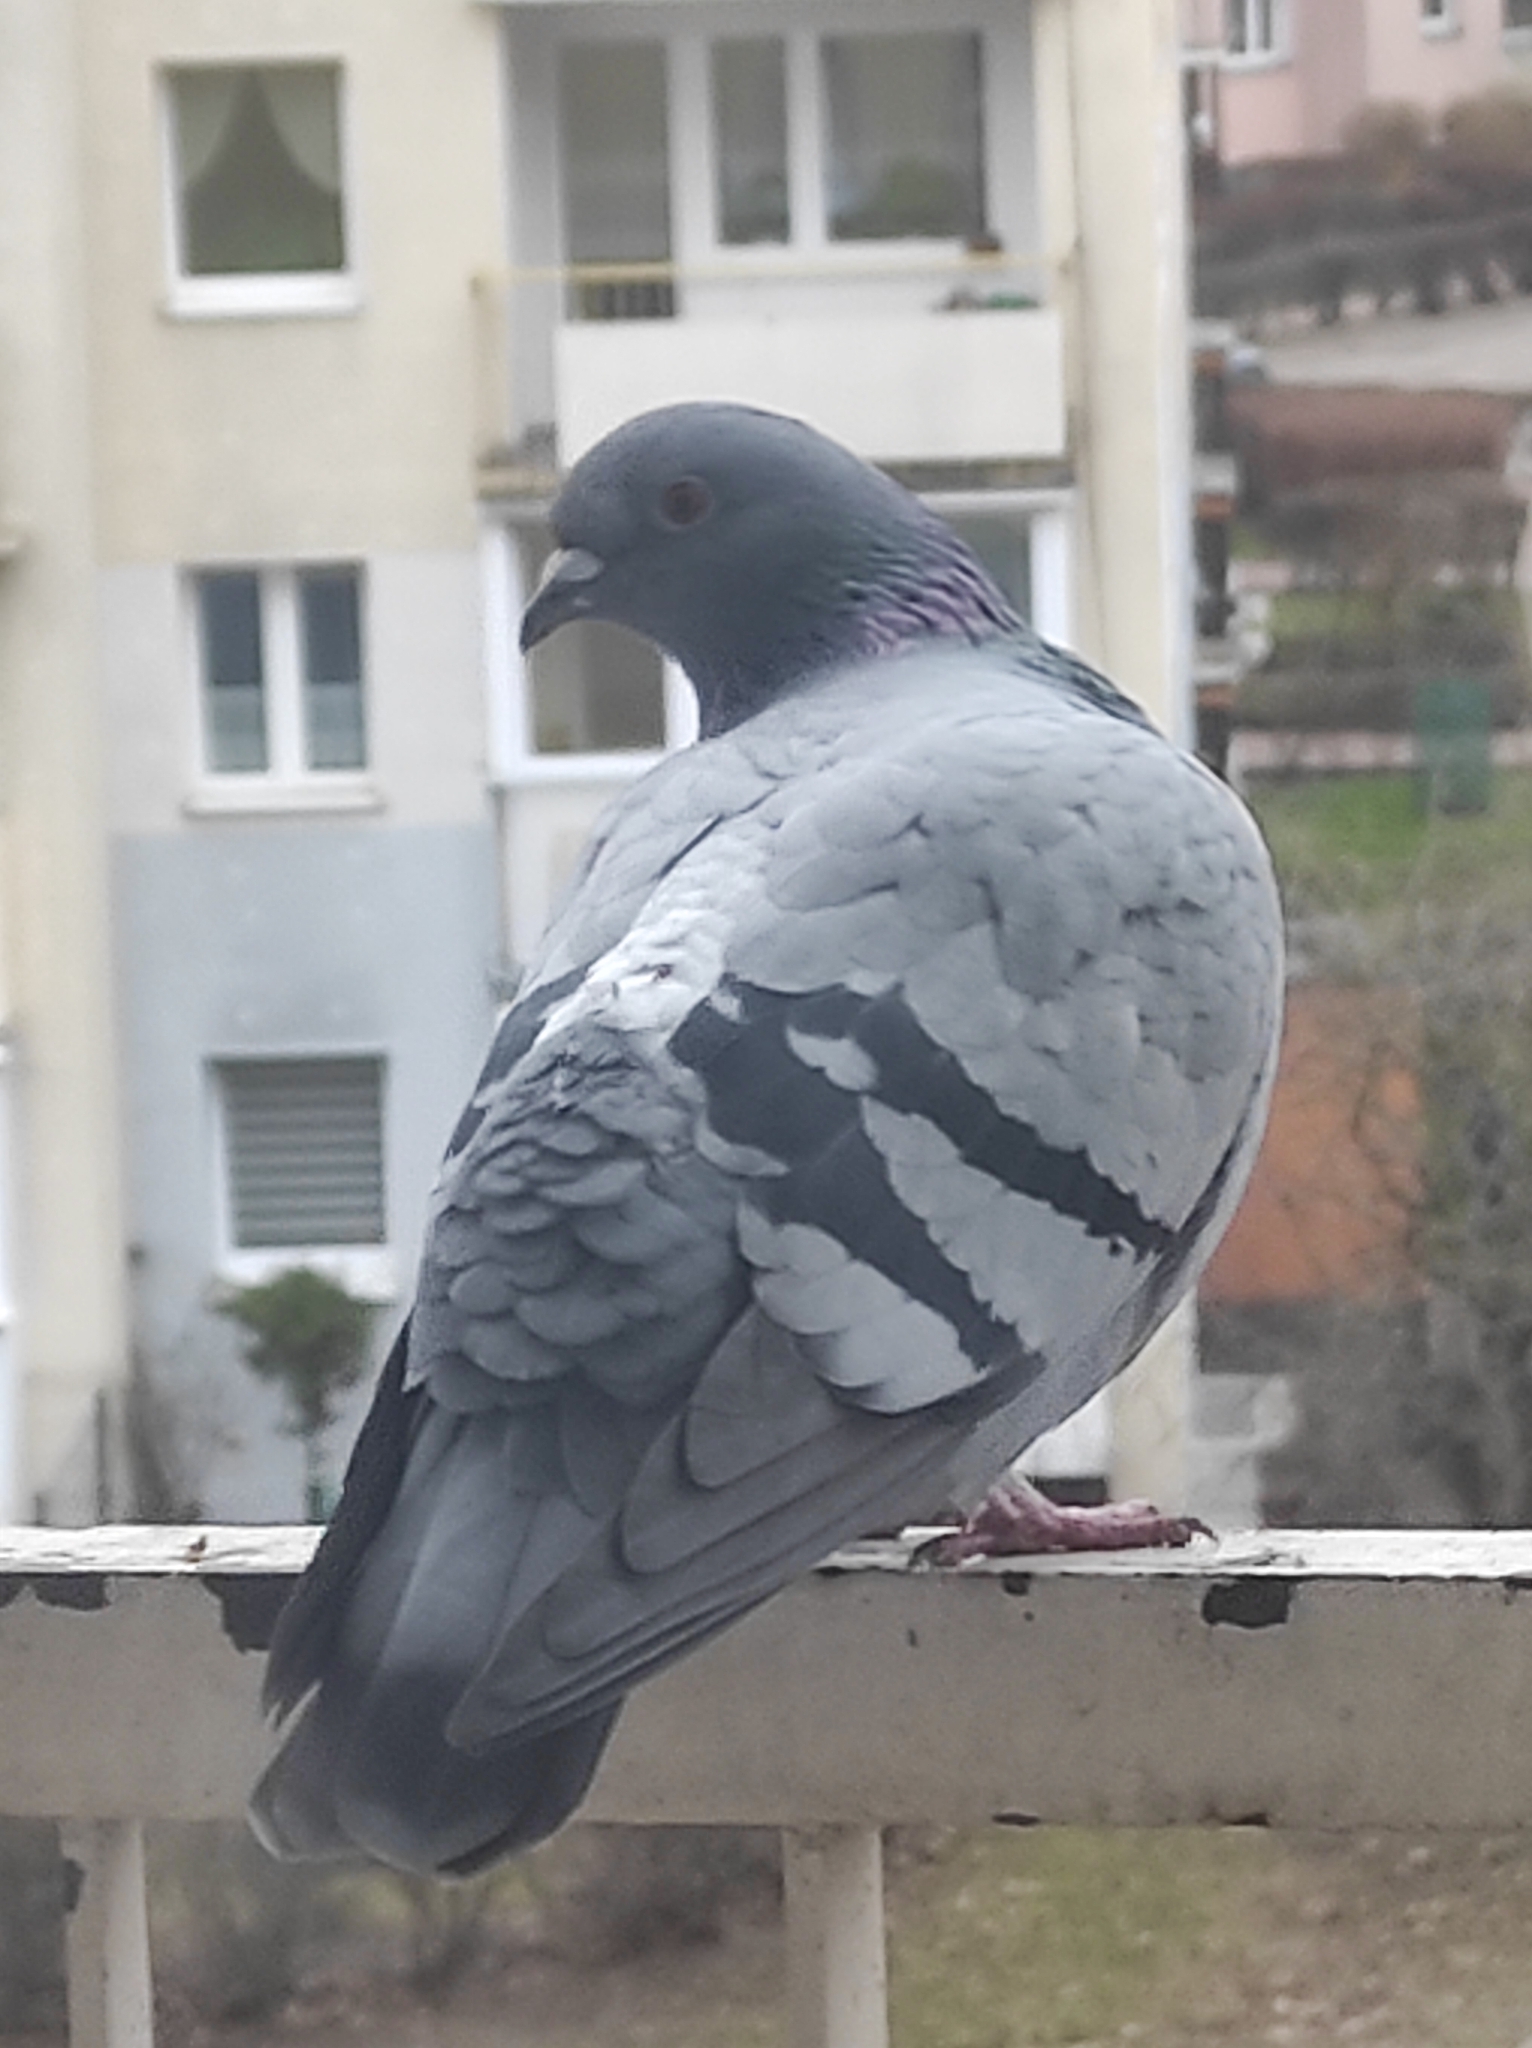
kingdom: Animalia
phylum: Chordata
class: Aves
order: Columbiformes
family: Columbidae
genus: Columba
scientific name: Columba livia
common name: Rock pigeon
